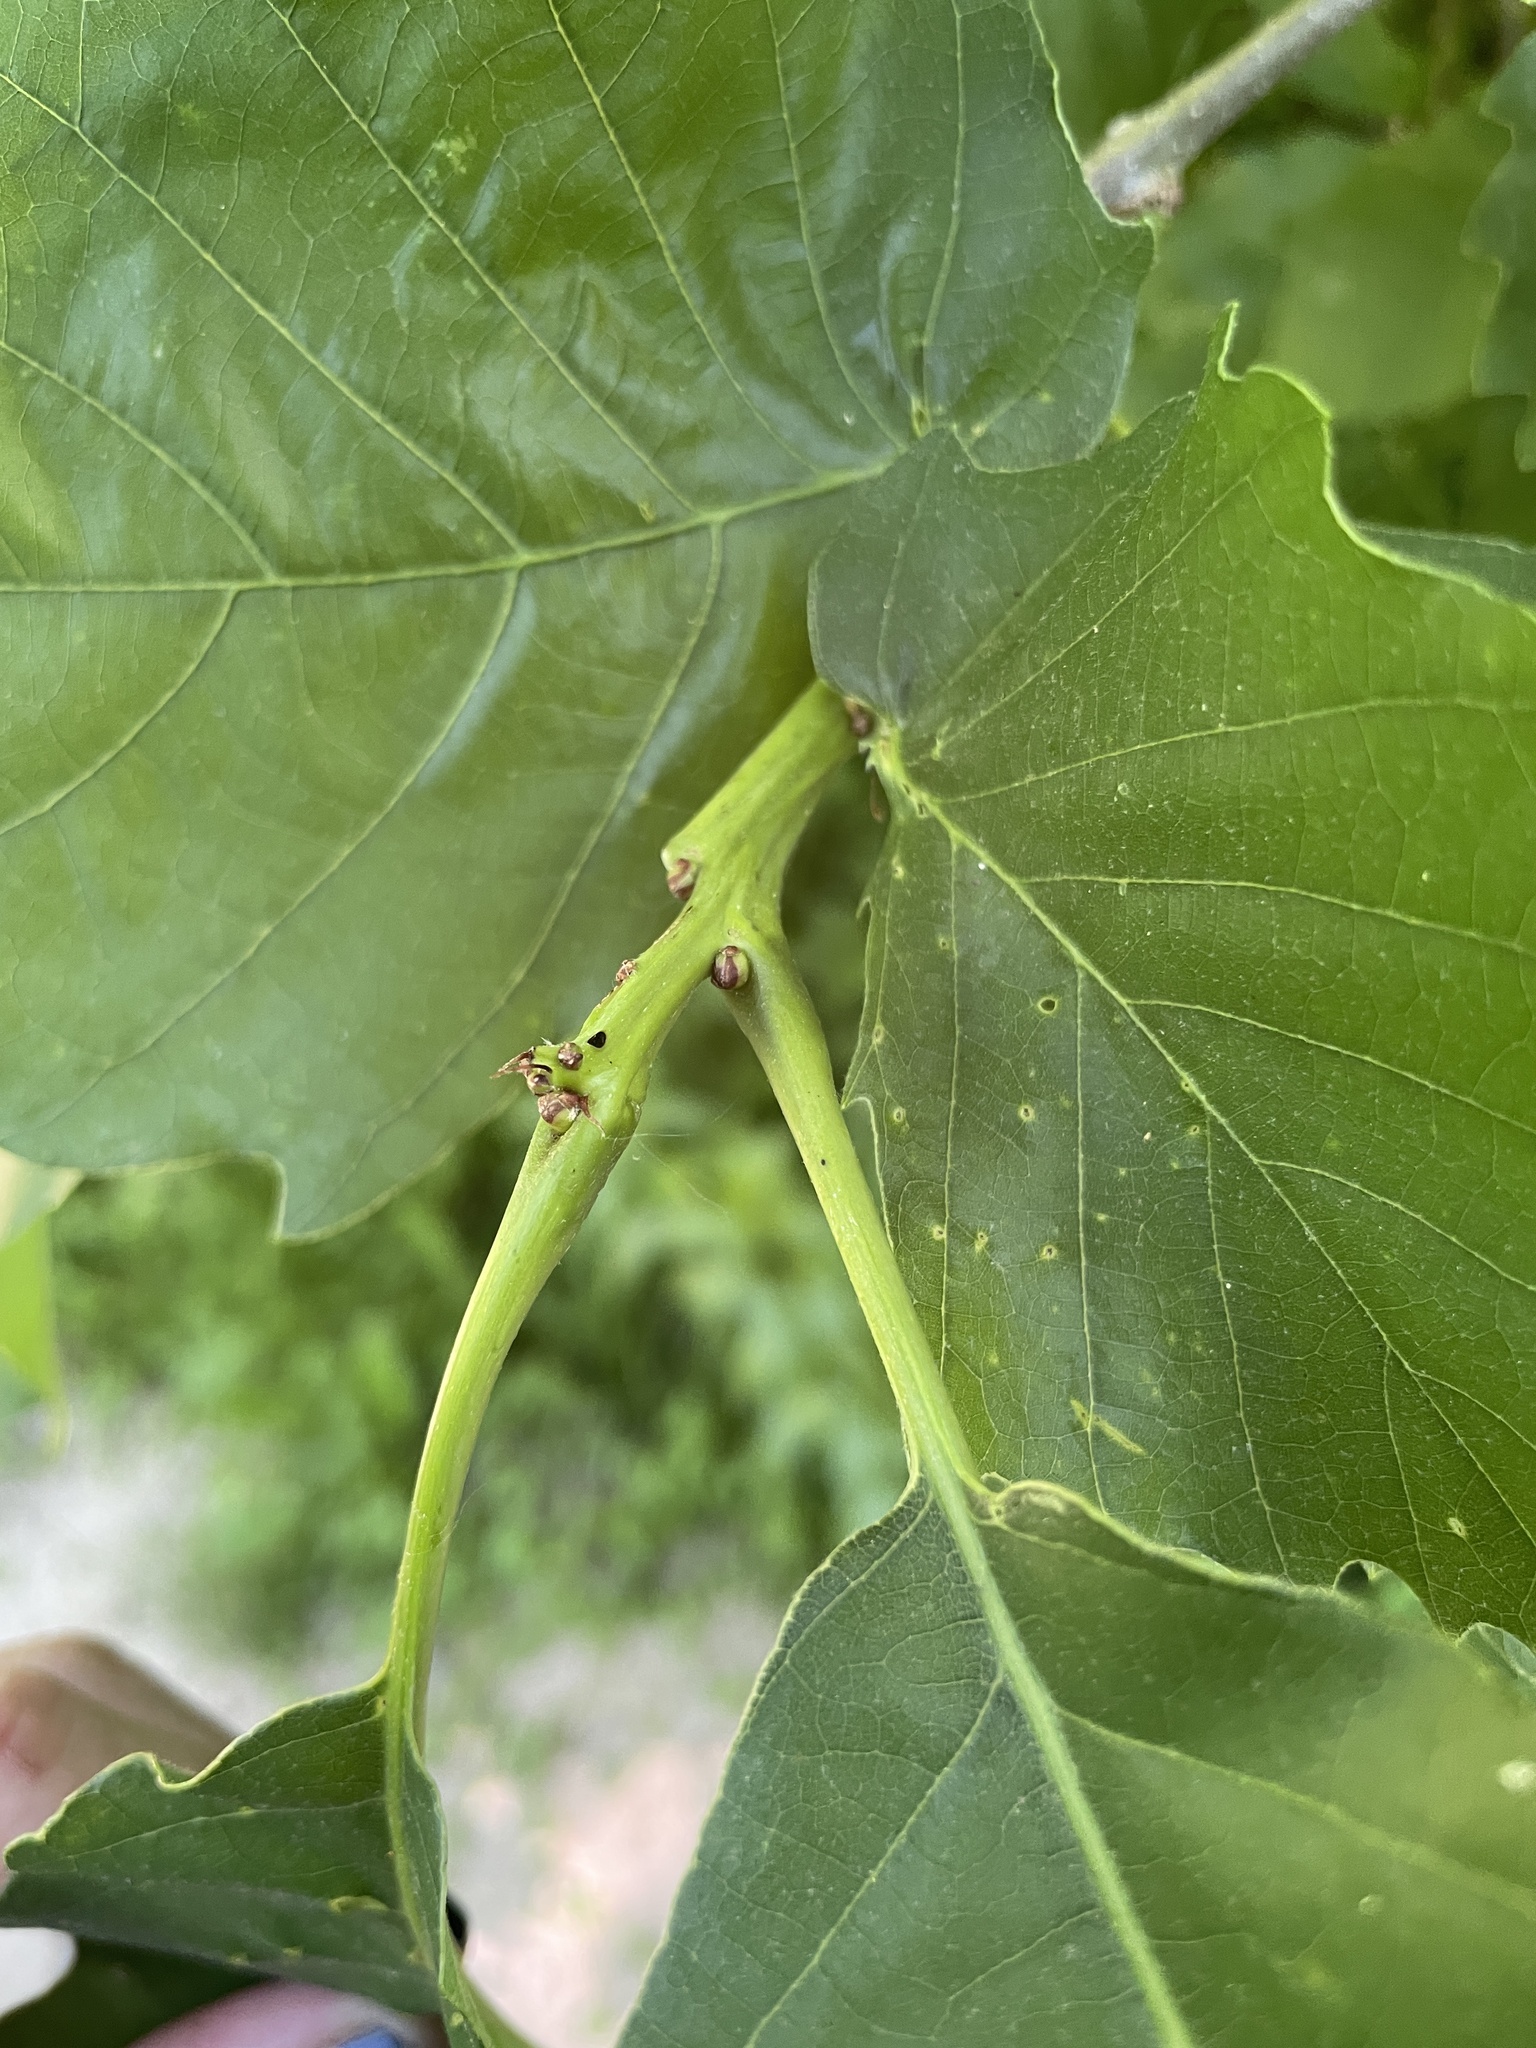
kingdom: Plantae
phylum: Tracheophyta
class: Magnoliopsida
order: Fagales
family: Fagaceae
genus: Quercus
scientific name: Quercus muehlenbergii
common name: Chinkapin oak
